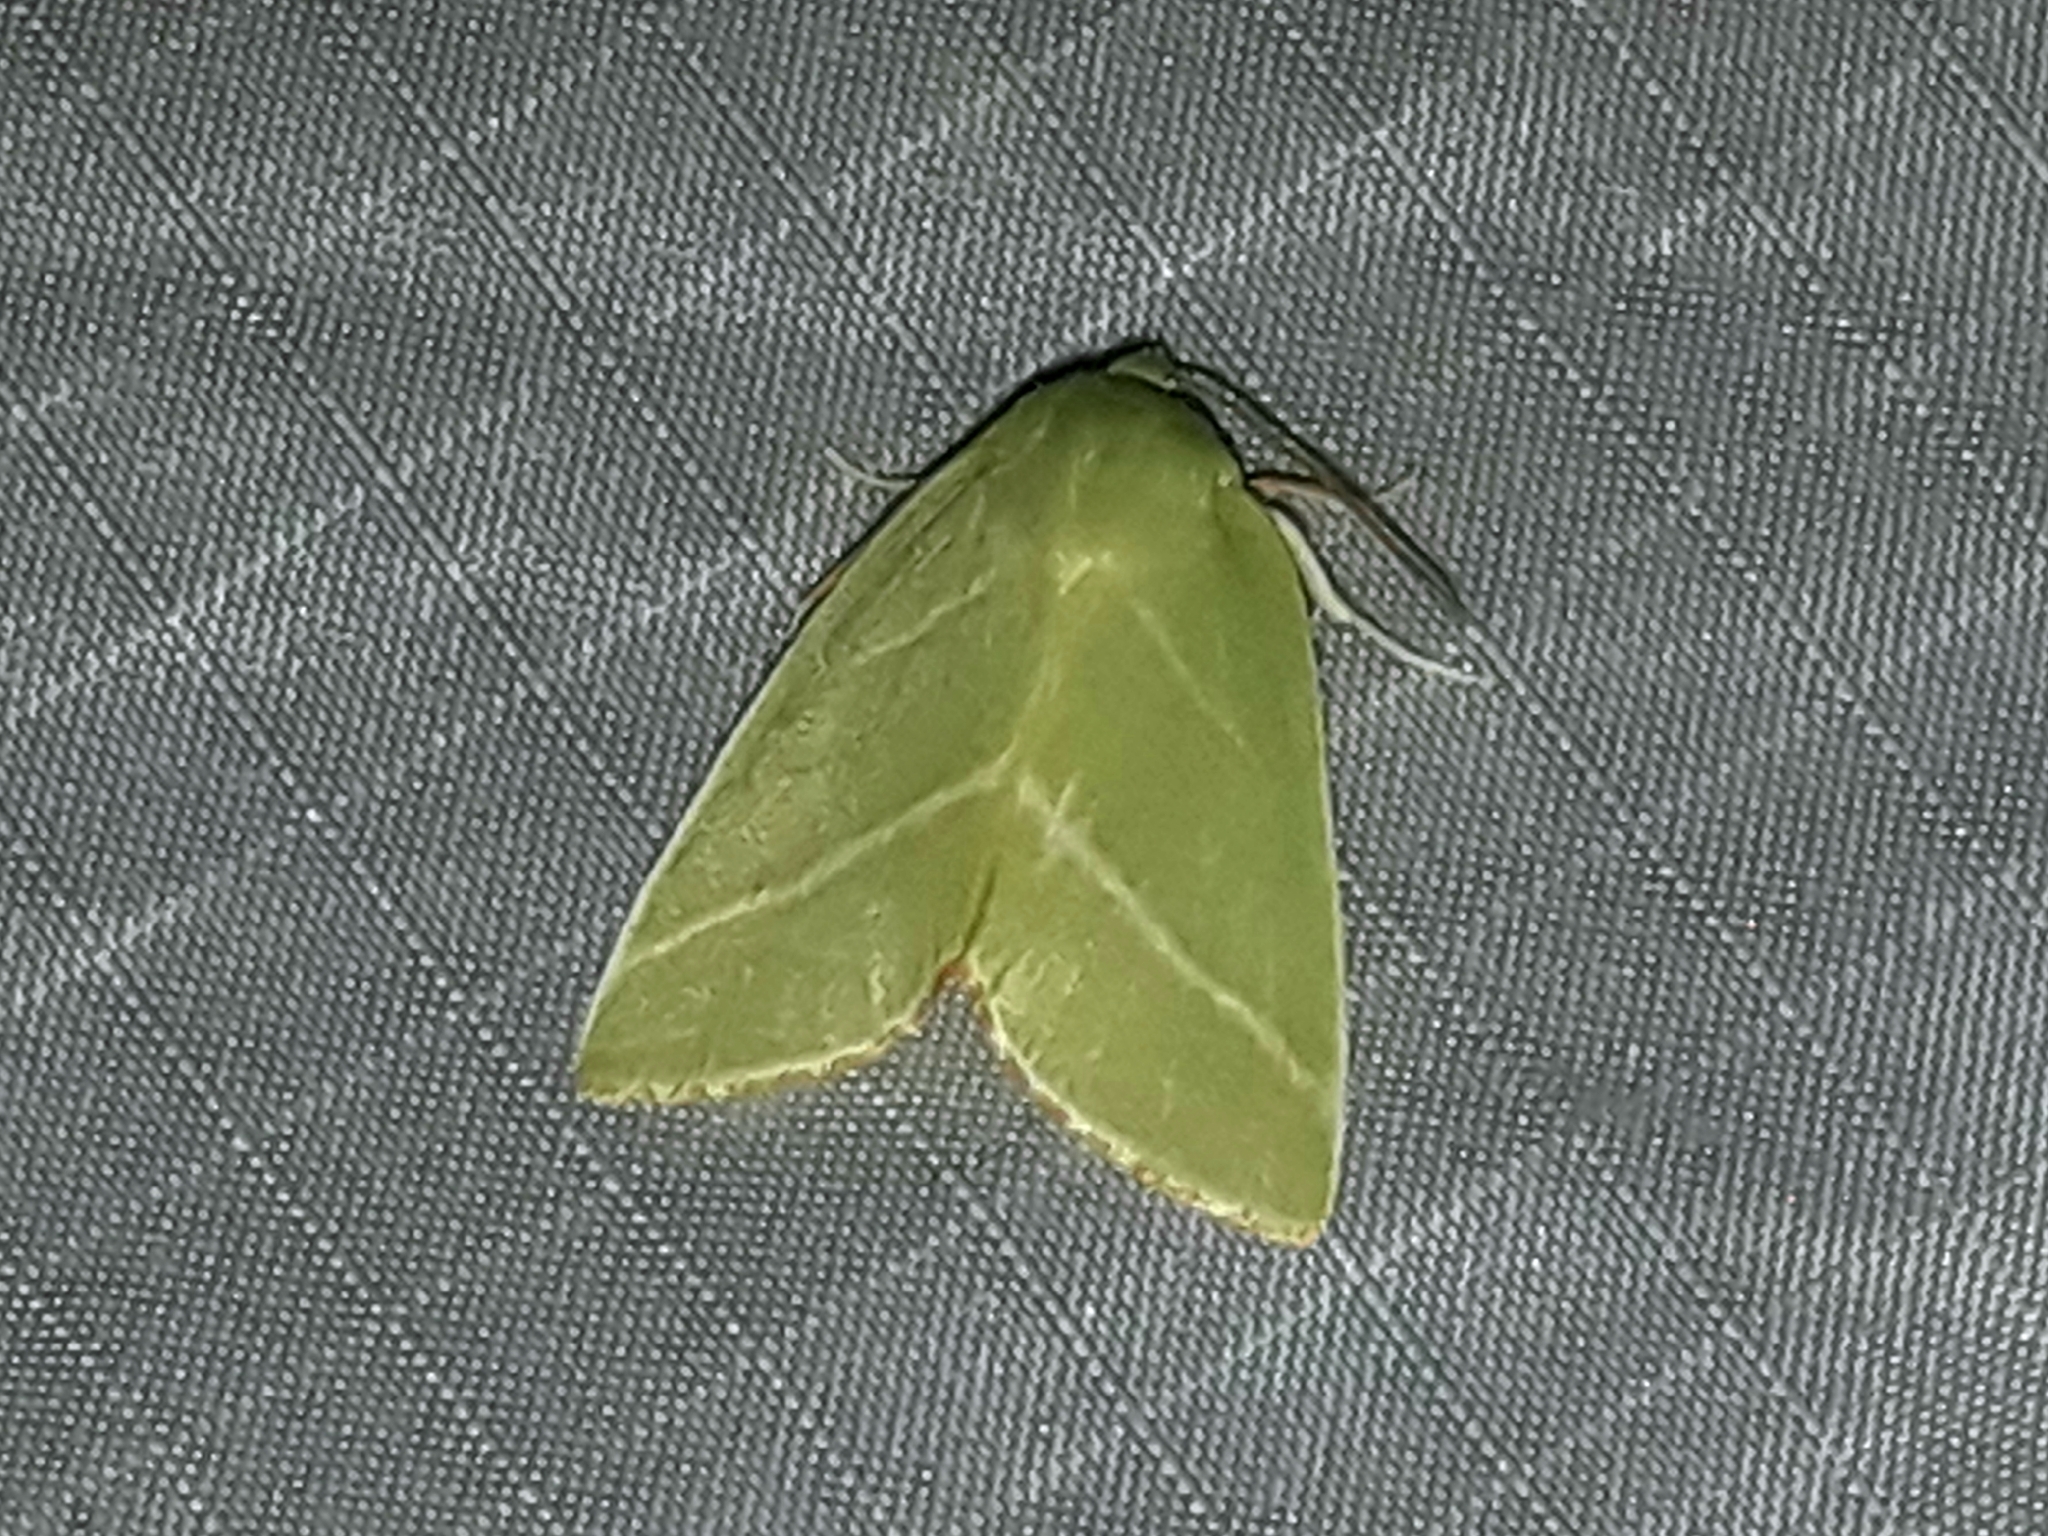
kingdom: Animalia
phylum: Arthropoda
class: Insecta
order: Lepidoptera
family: Nolidae
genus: Pseudoips
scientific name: Pseudoips prasinana
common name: Green silver-lines
